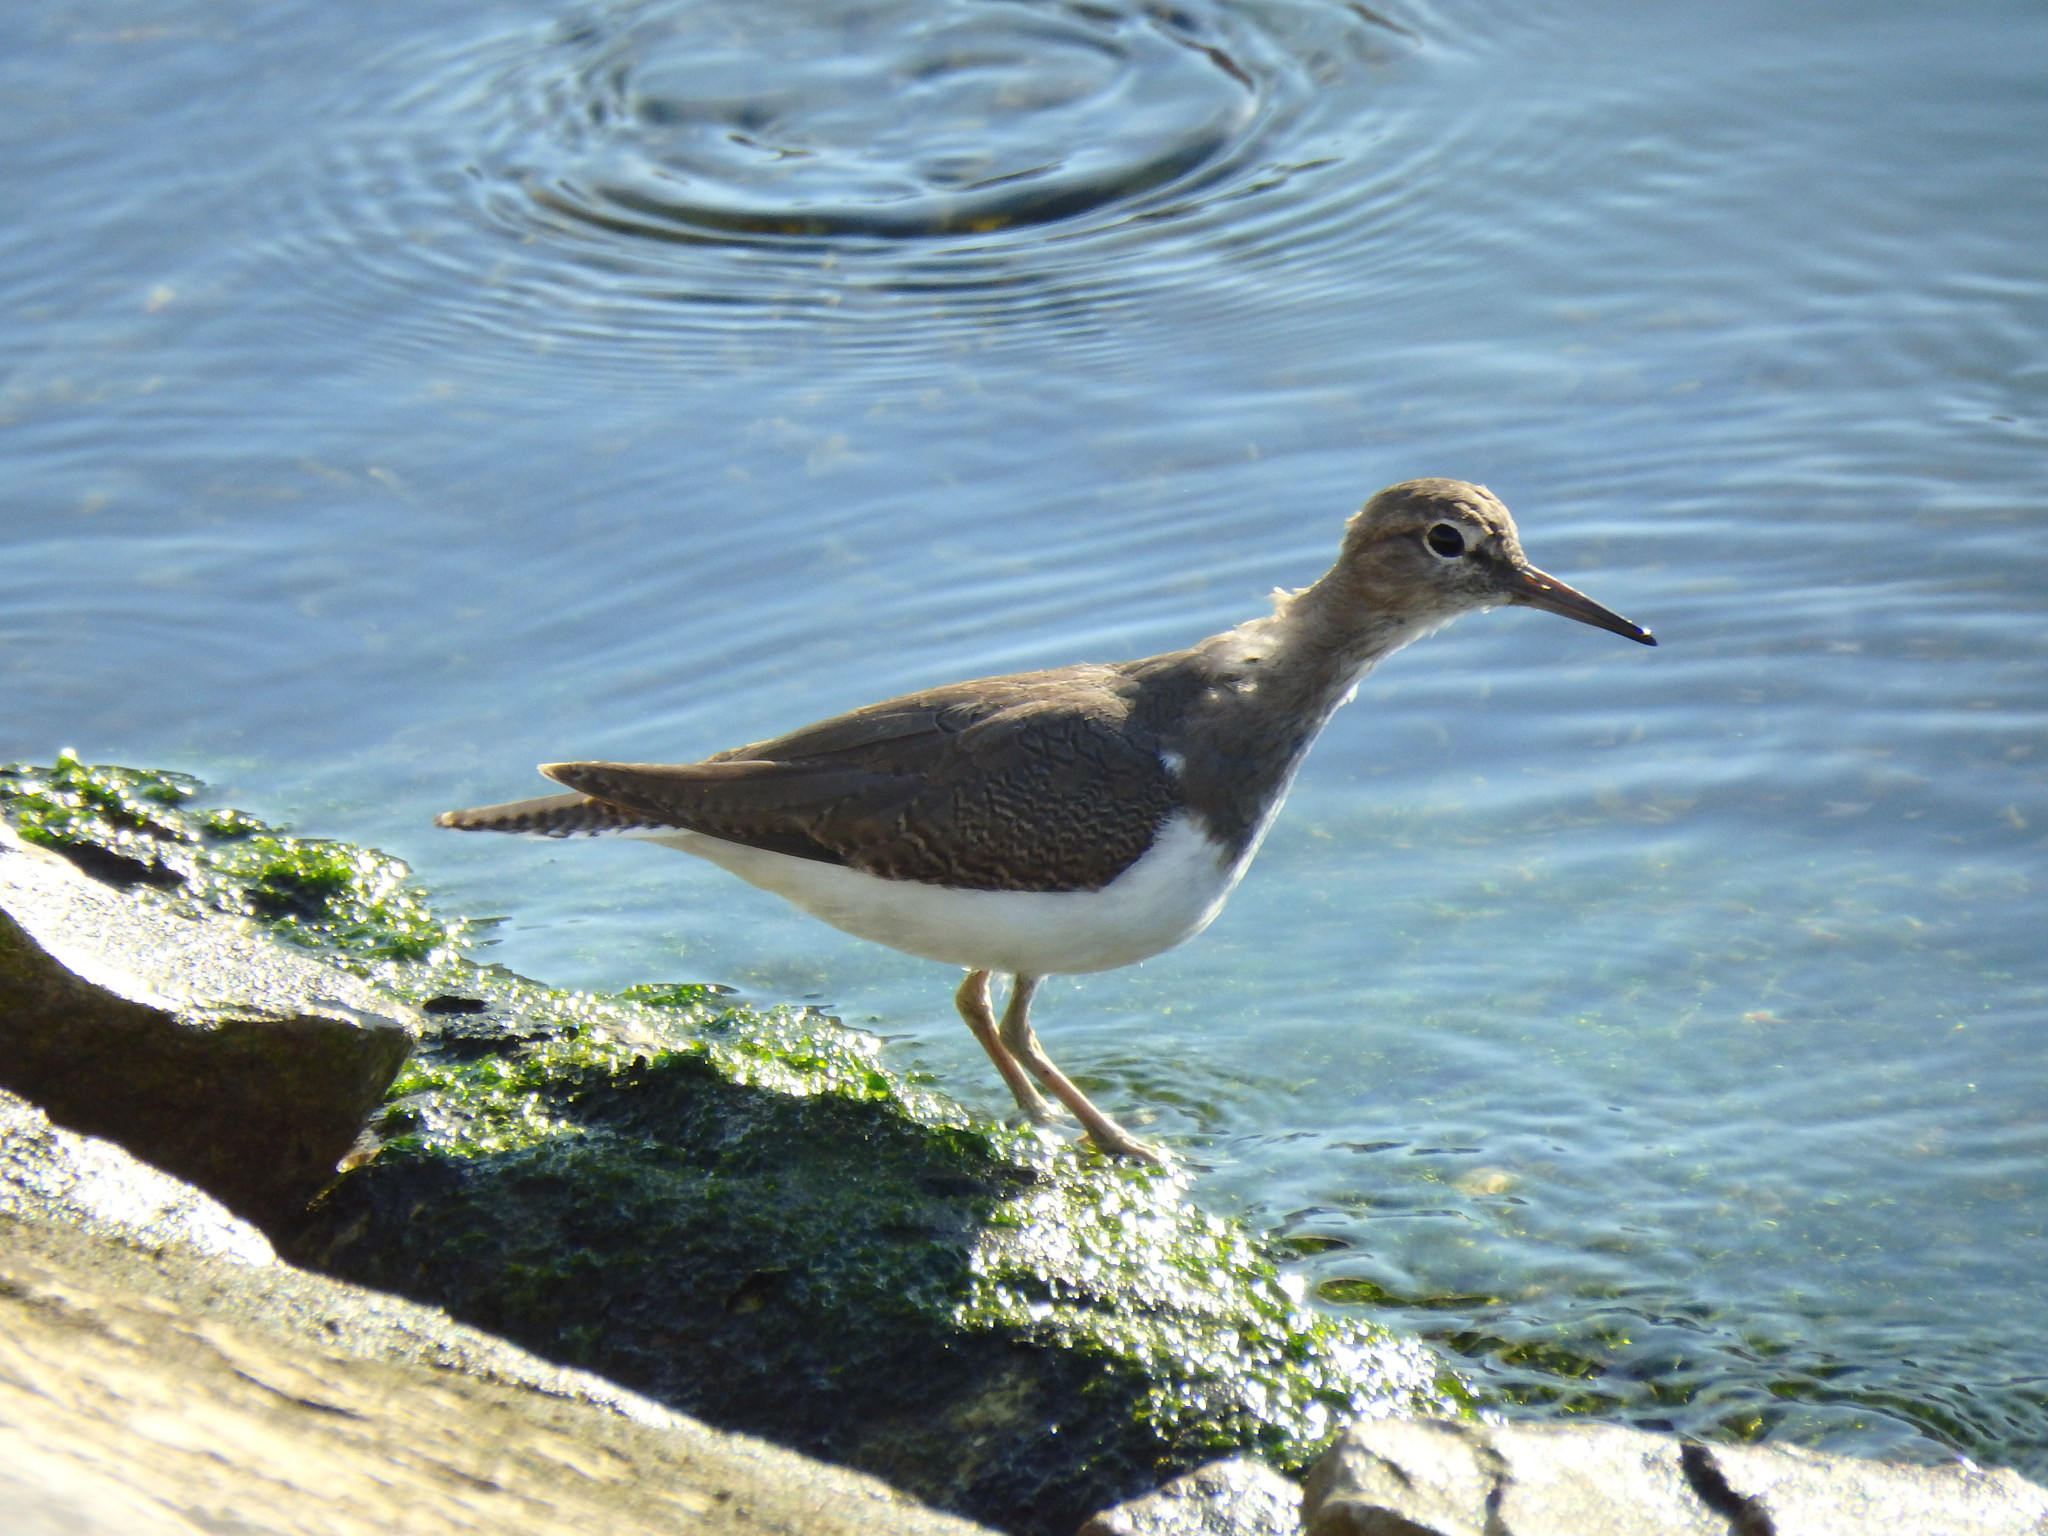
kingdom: Animalia
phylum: Chordata
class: Aves
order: Charadriiformes
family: Scolopacidae
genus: Actitis
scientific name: Actitis hypoleucos
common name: Common sandpiper
